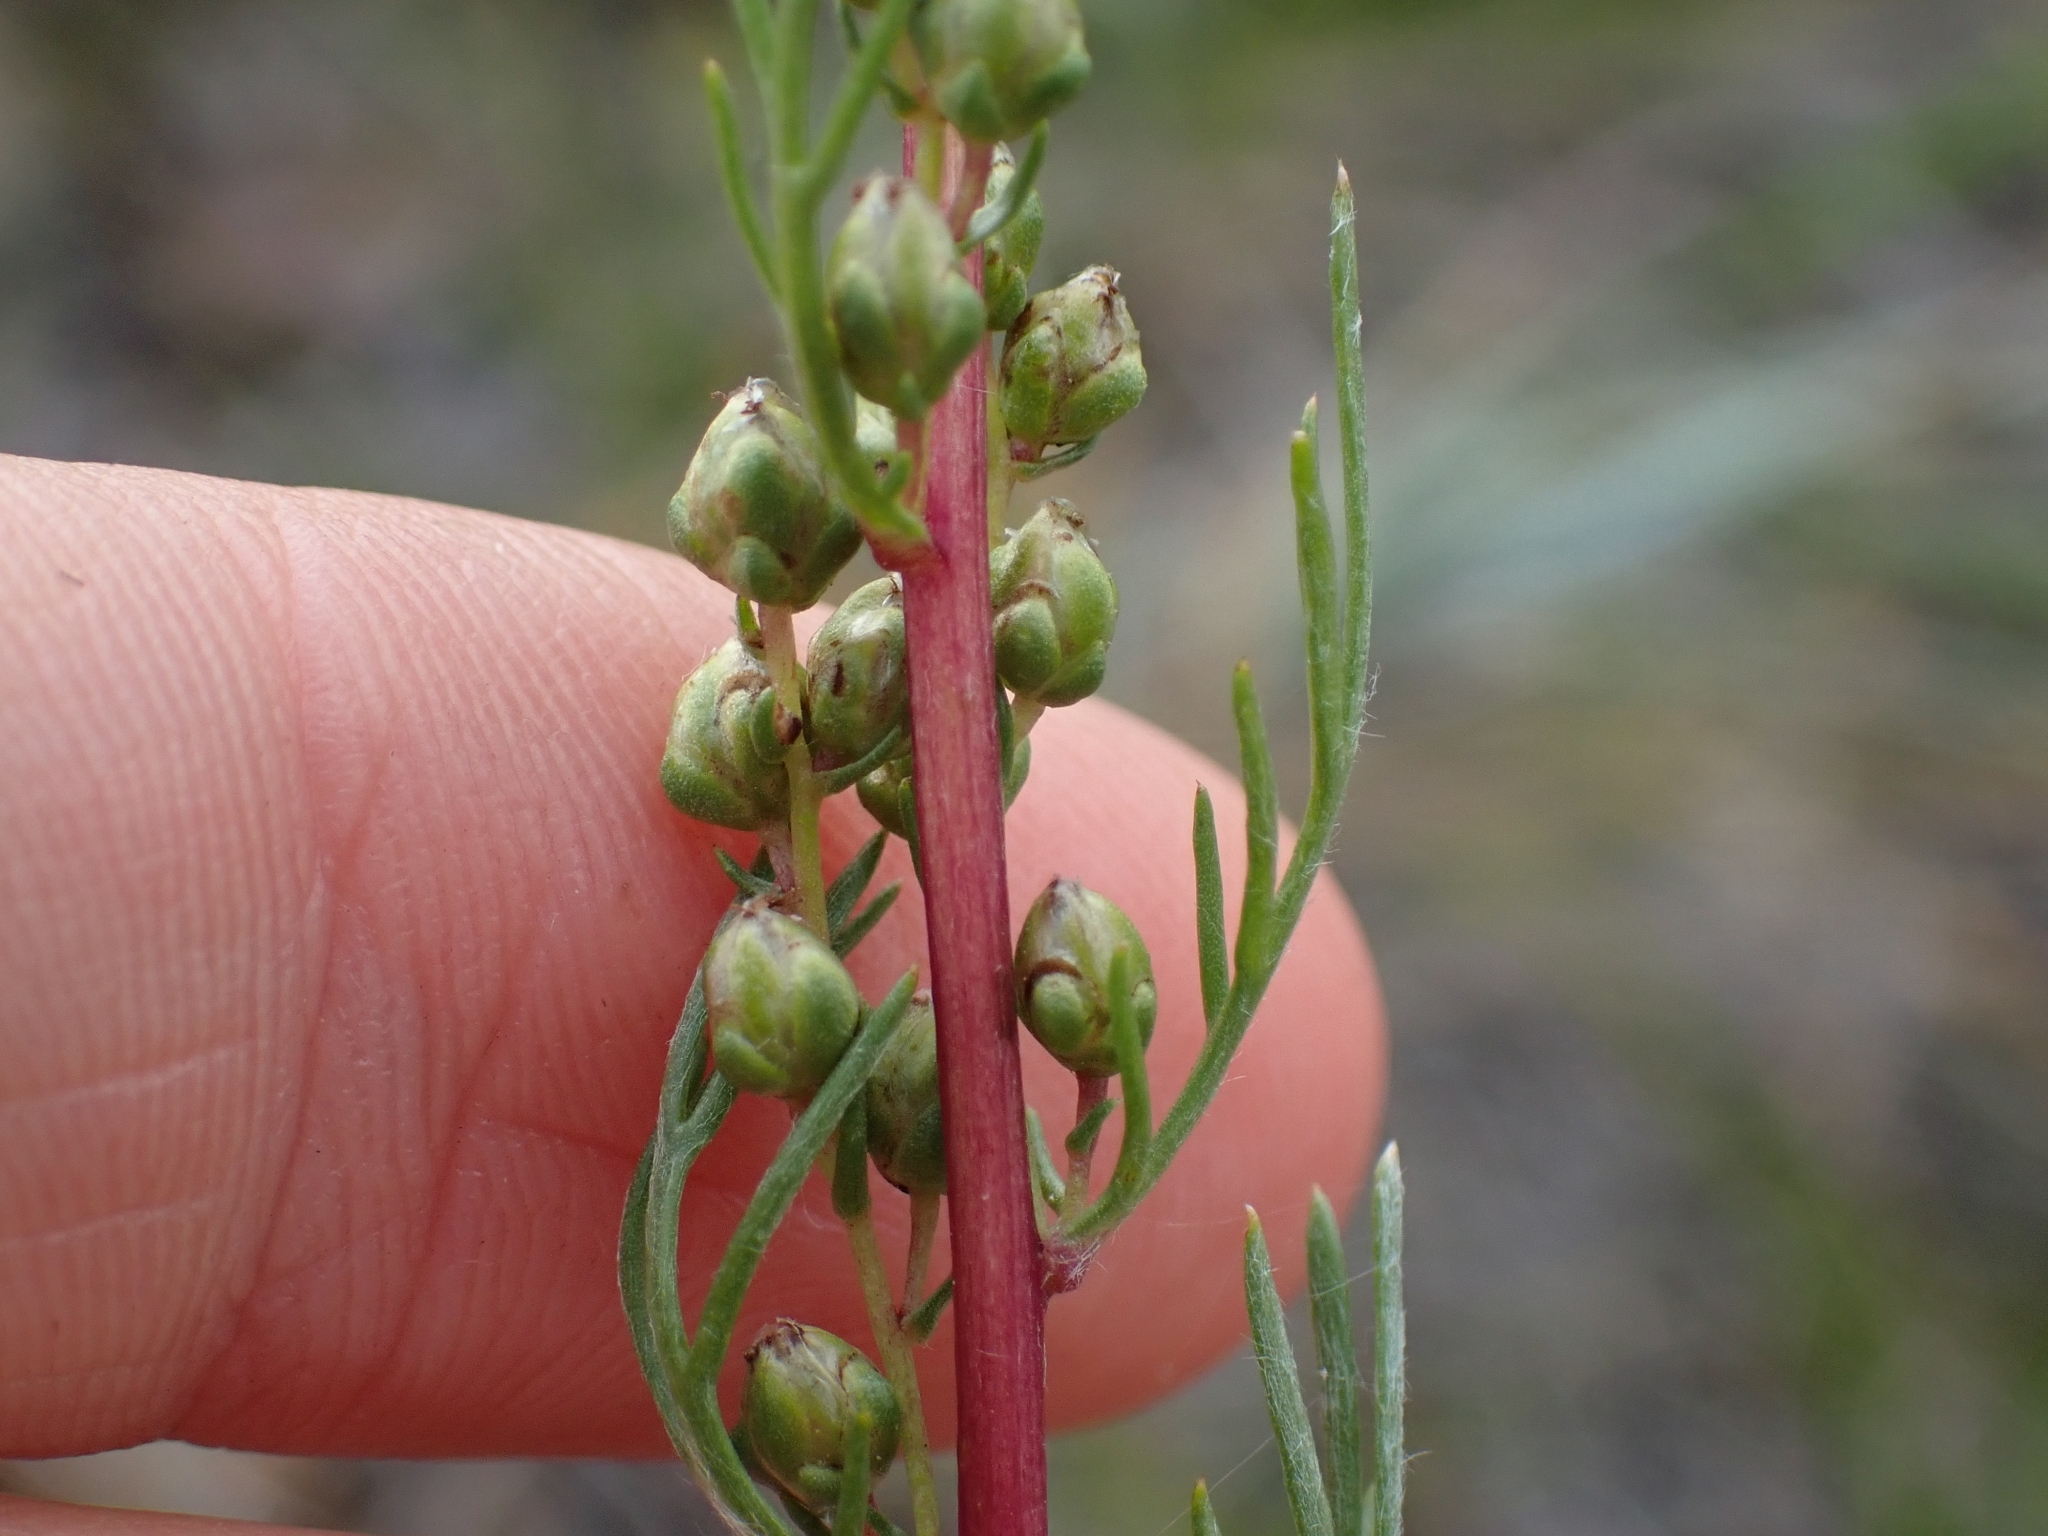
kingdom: Plantae
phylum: Tracheophyta
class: Magnoliopsida
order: Asterales
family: Asteraceae
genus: Artemisia
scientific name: Artemisia campestris
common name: Field wormwood
